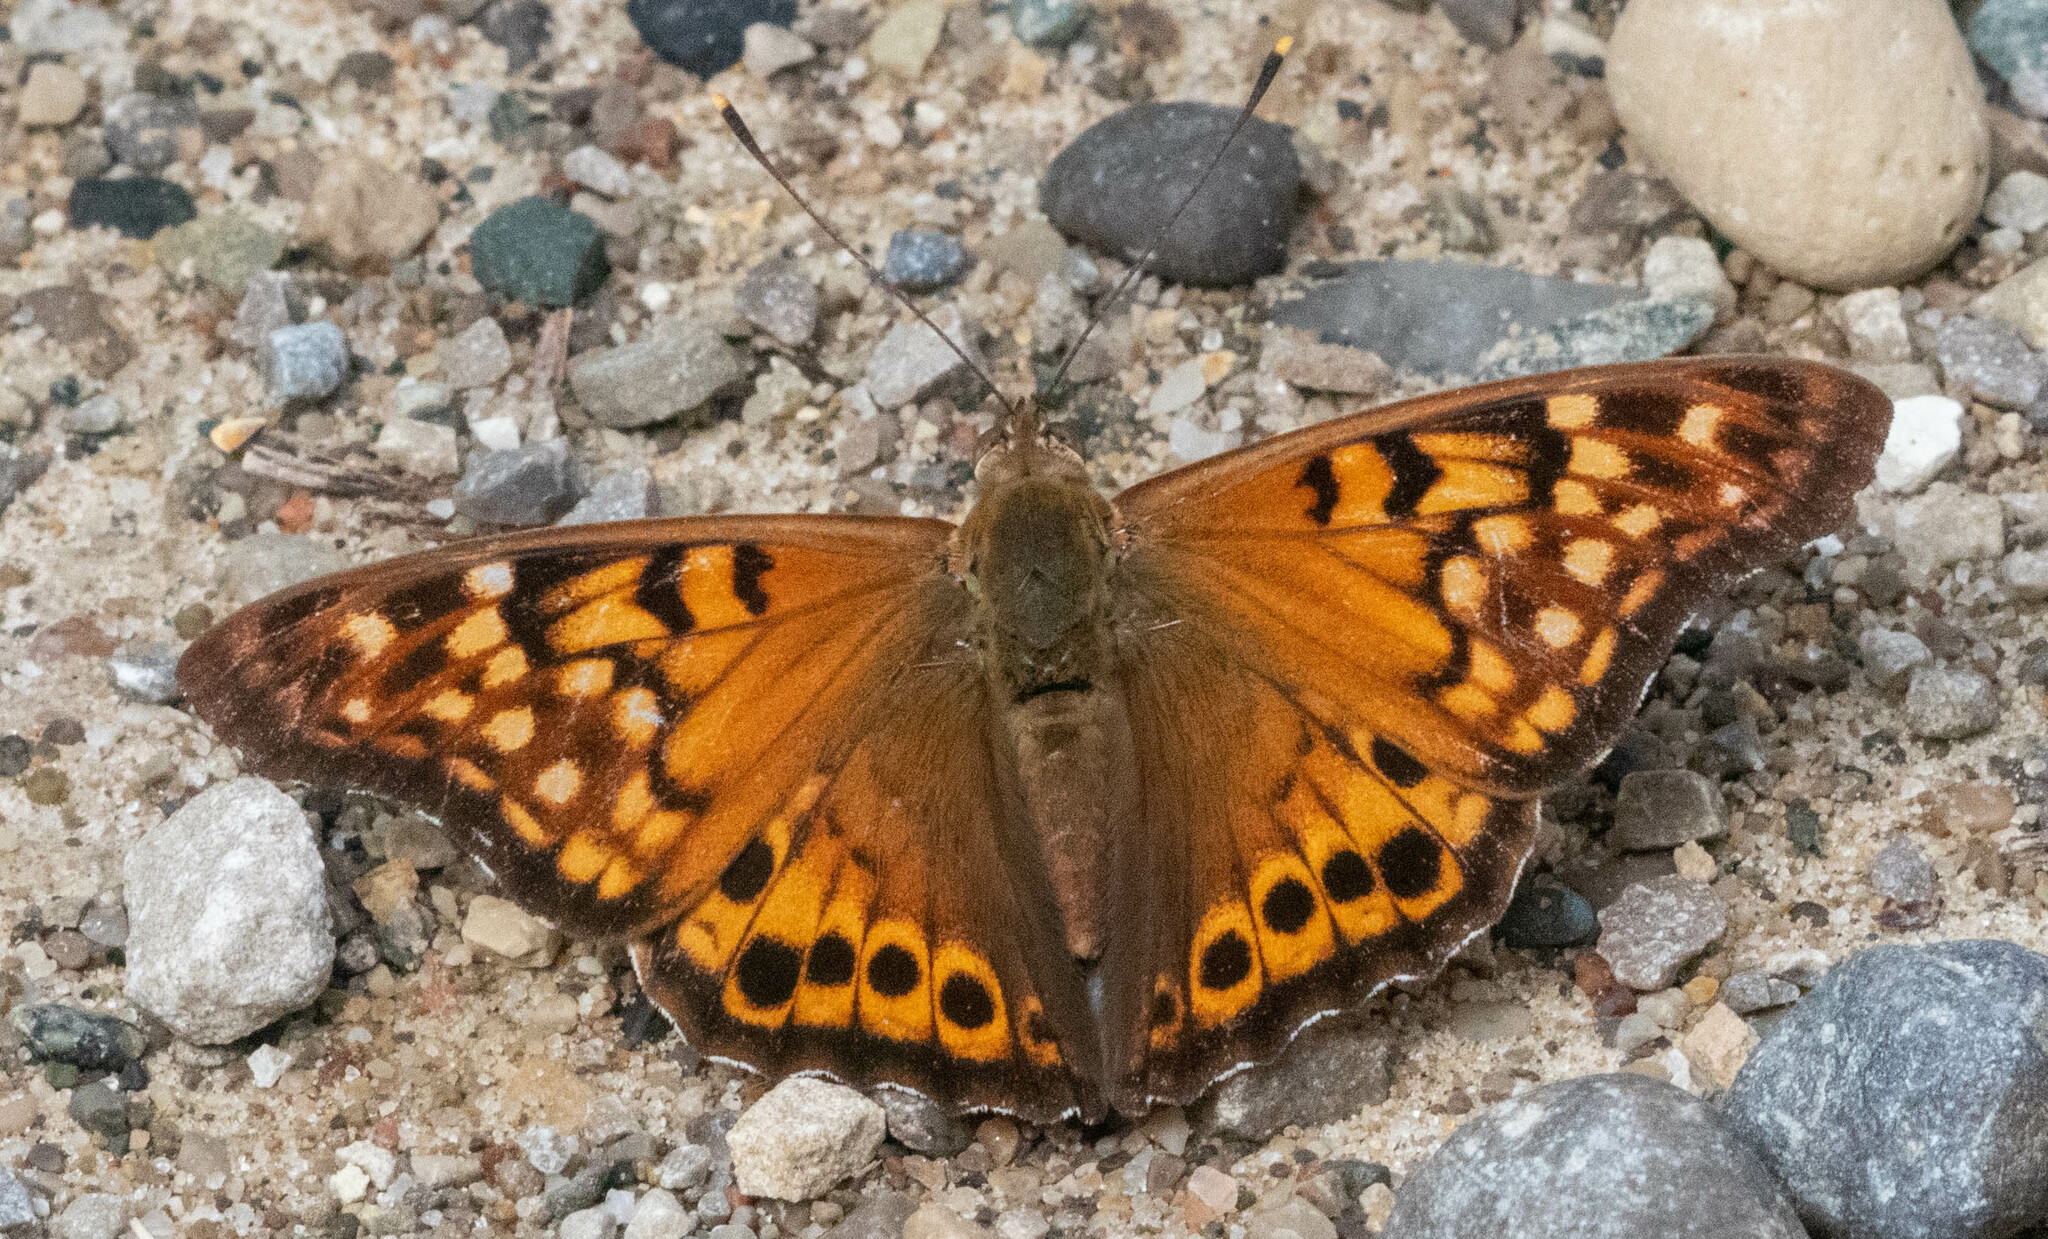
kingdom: Animalia
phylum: Arthropoda
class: Insecta
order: Lepidoptera
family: Nymphalidae
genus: Asterocampa
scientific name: Asterocampa clyton
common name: Tawny emperor
